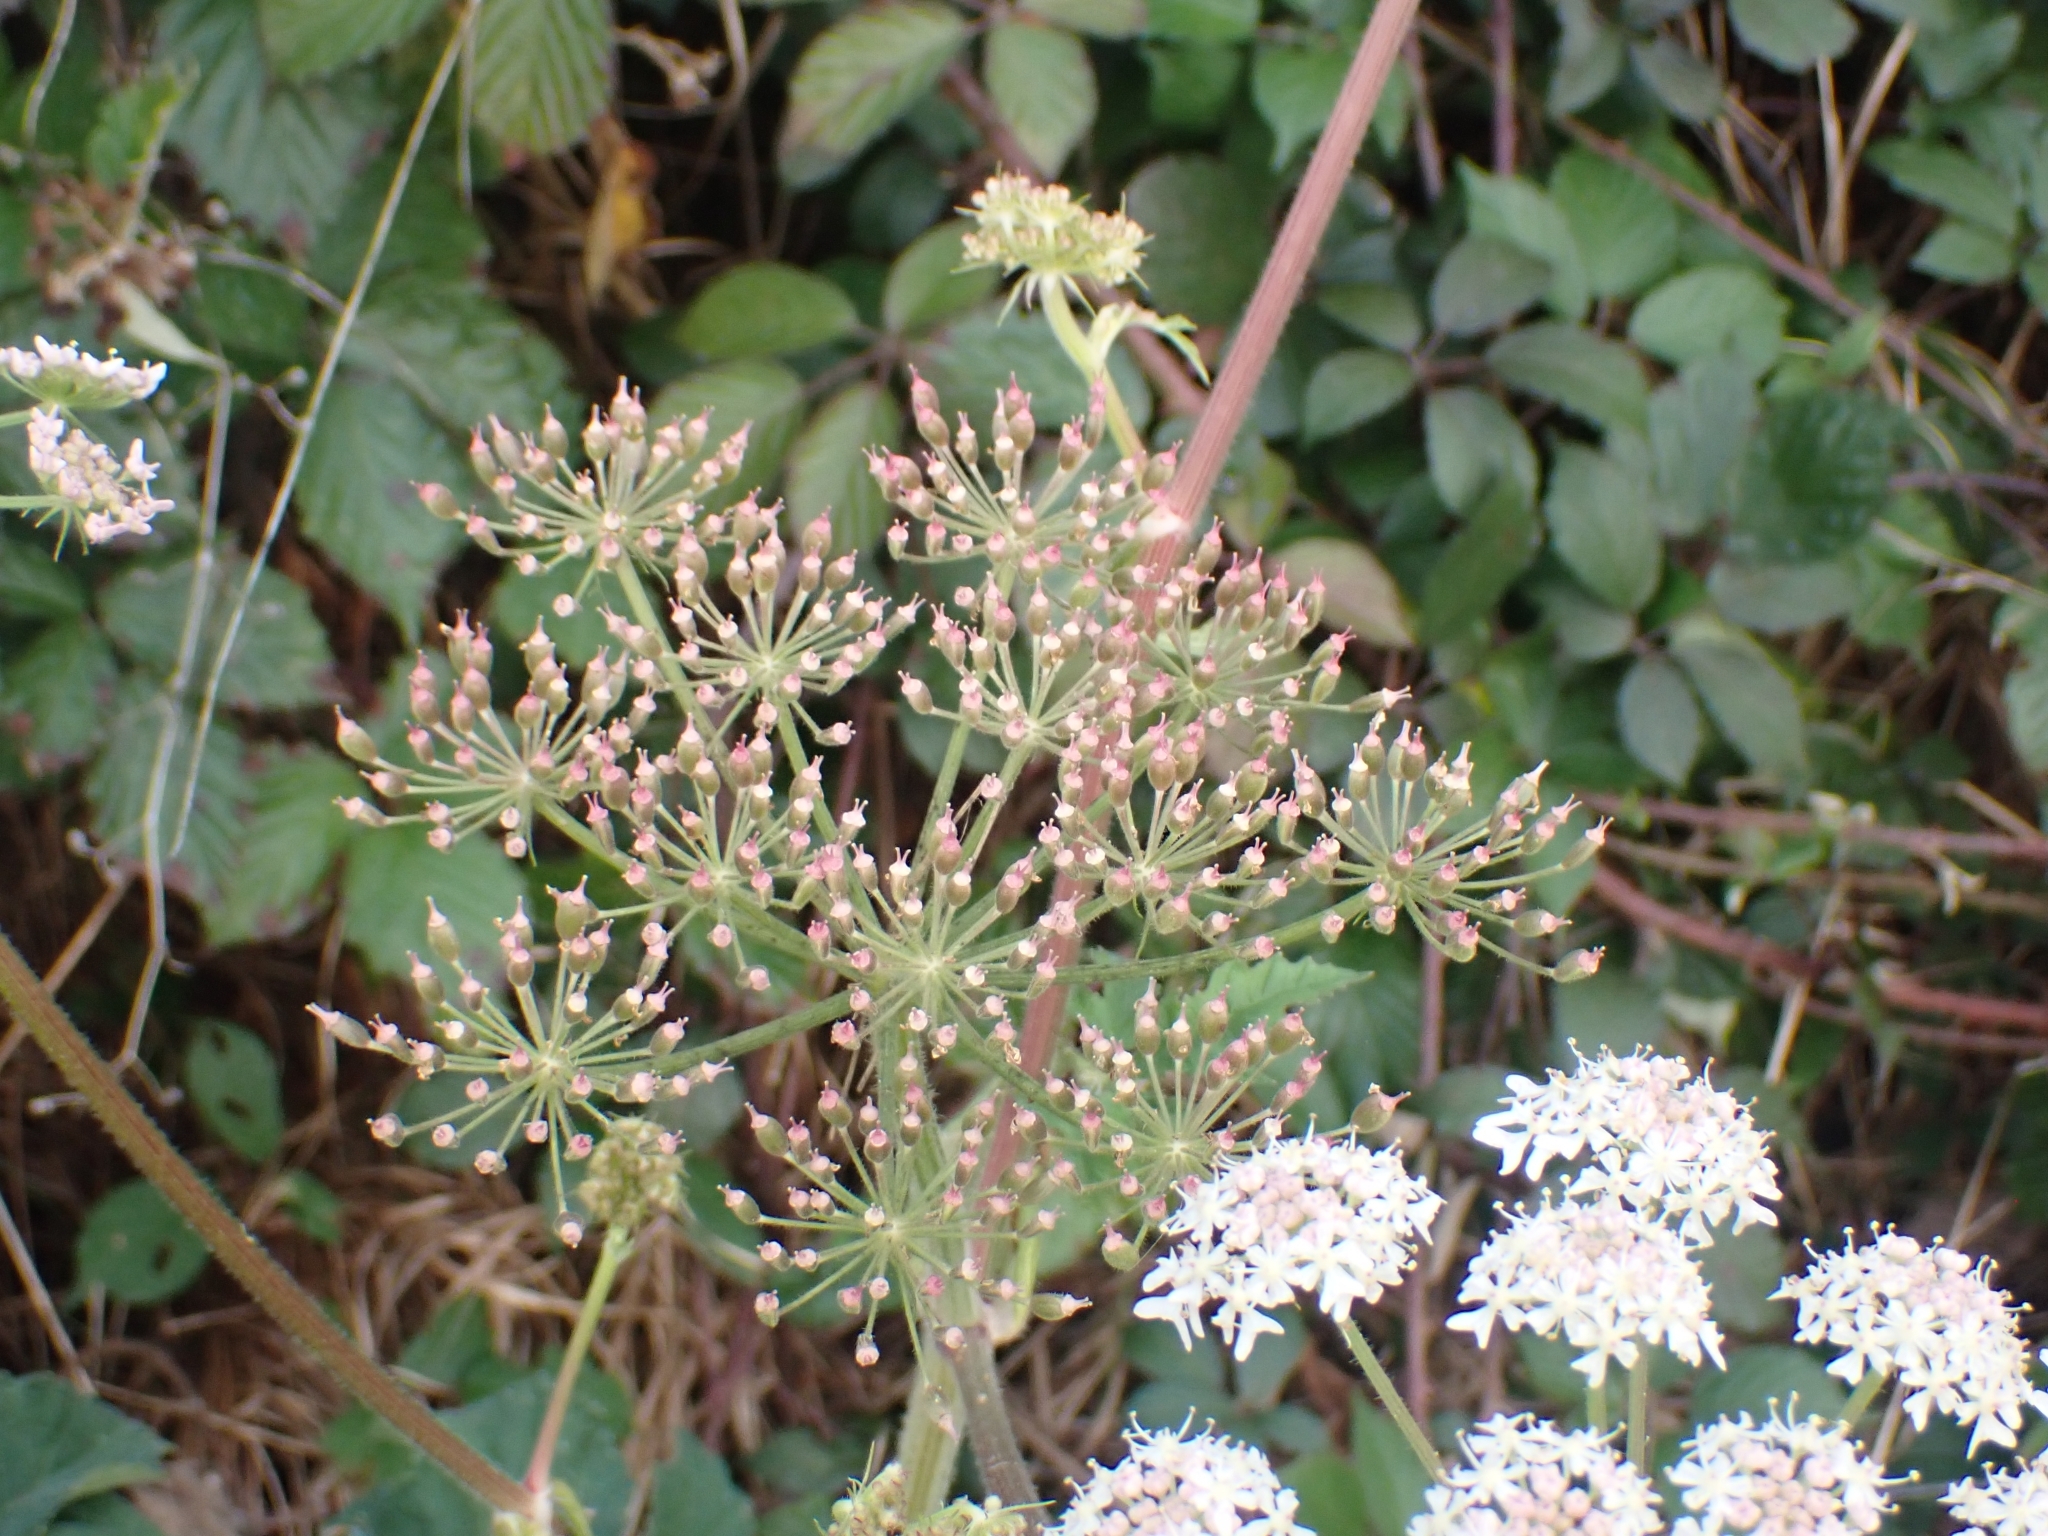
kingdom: Plantae
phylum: Tracheophyta
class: Magnoliopsida
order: Apiales
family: Apiaceae
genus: Heracleum
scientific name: Heracleum sphondylium
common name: Hogweed
